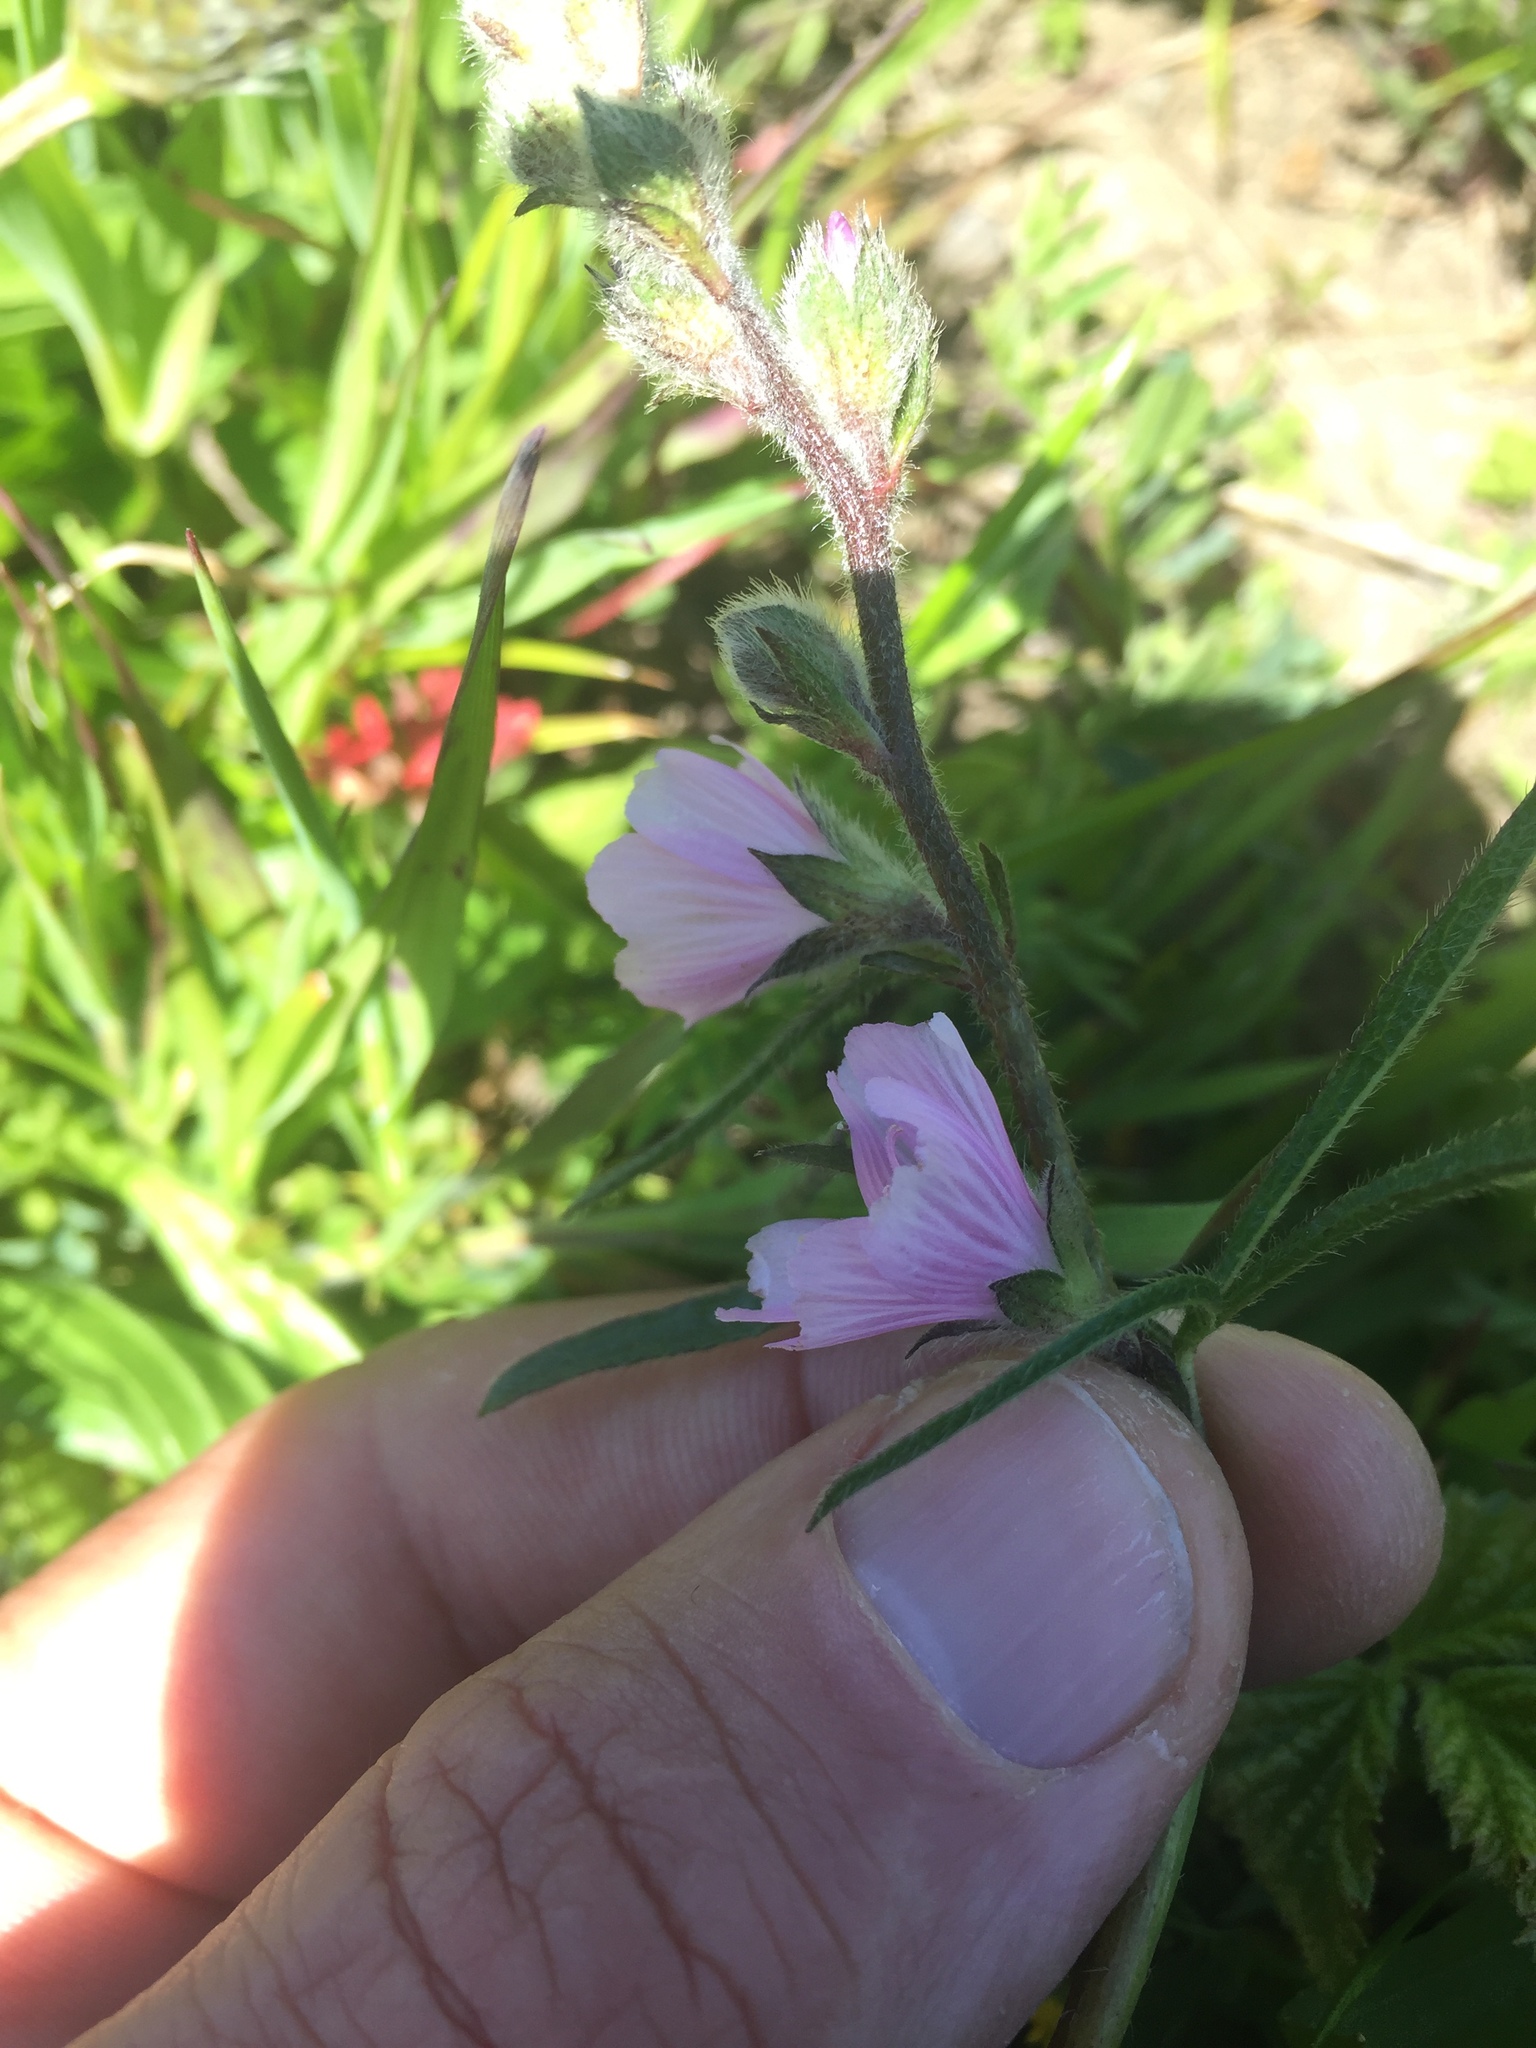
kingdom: Plantae
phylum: Tracheophyta
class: Magnoliopsida
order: Malvales
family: Malvaceae
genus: Sidalcea
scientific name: Sidalcea malviflora
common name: Greek mallow
